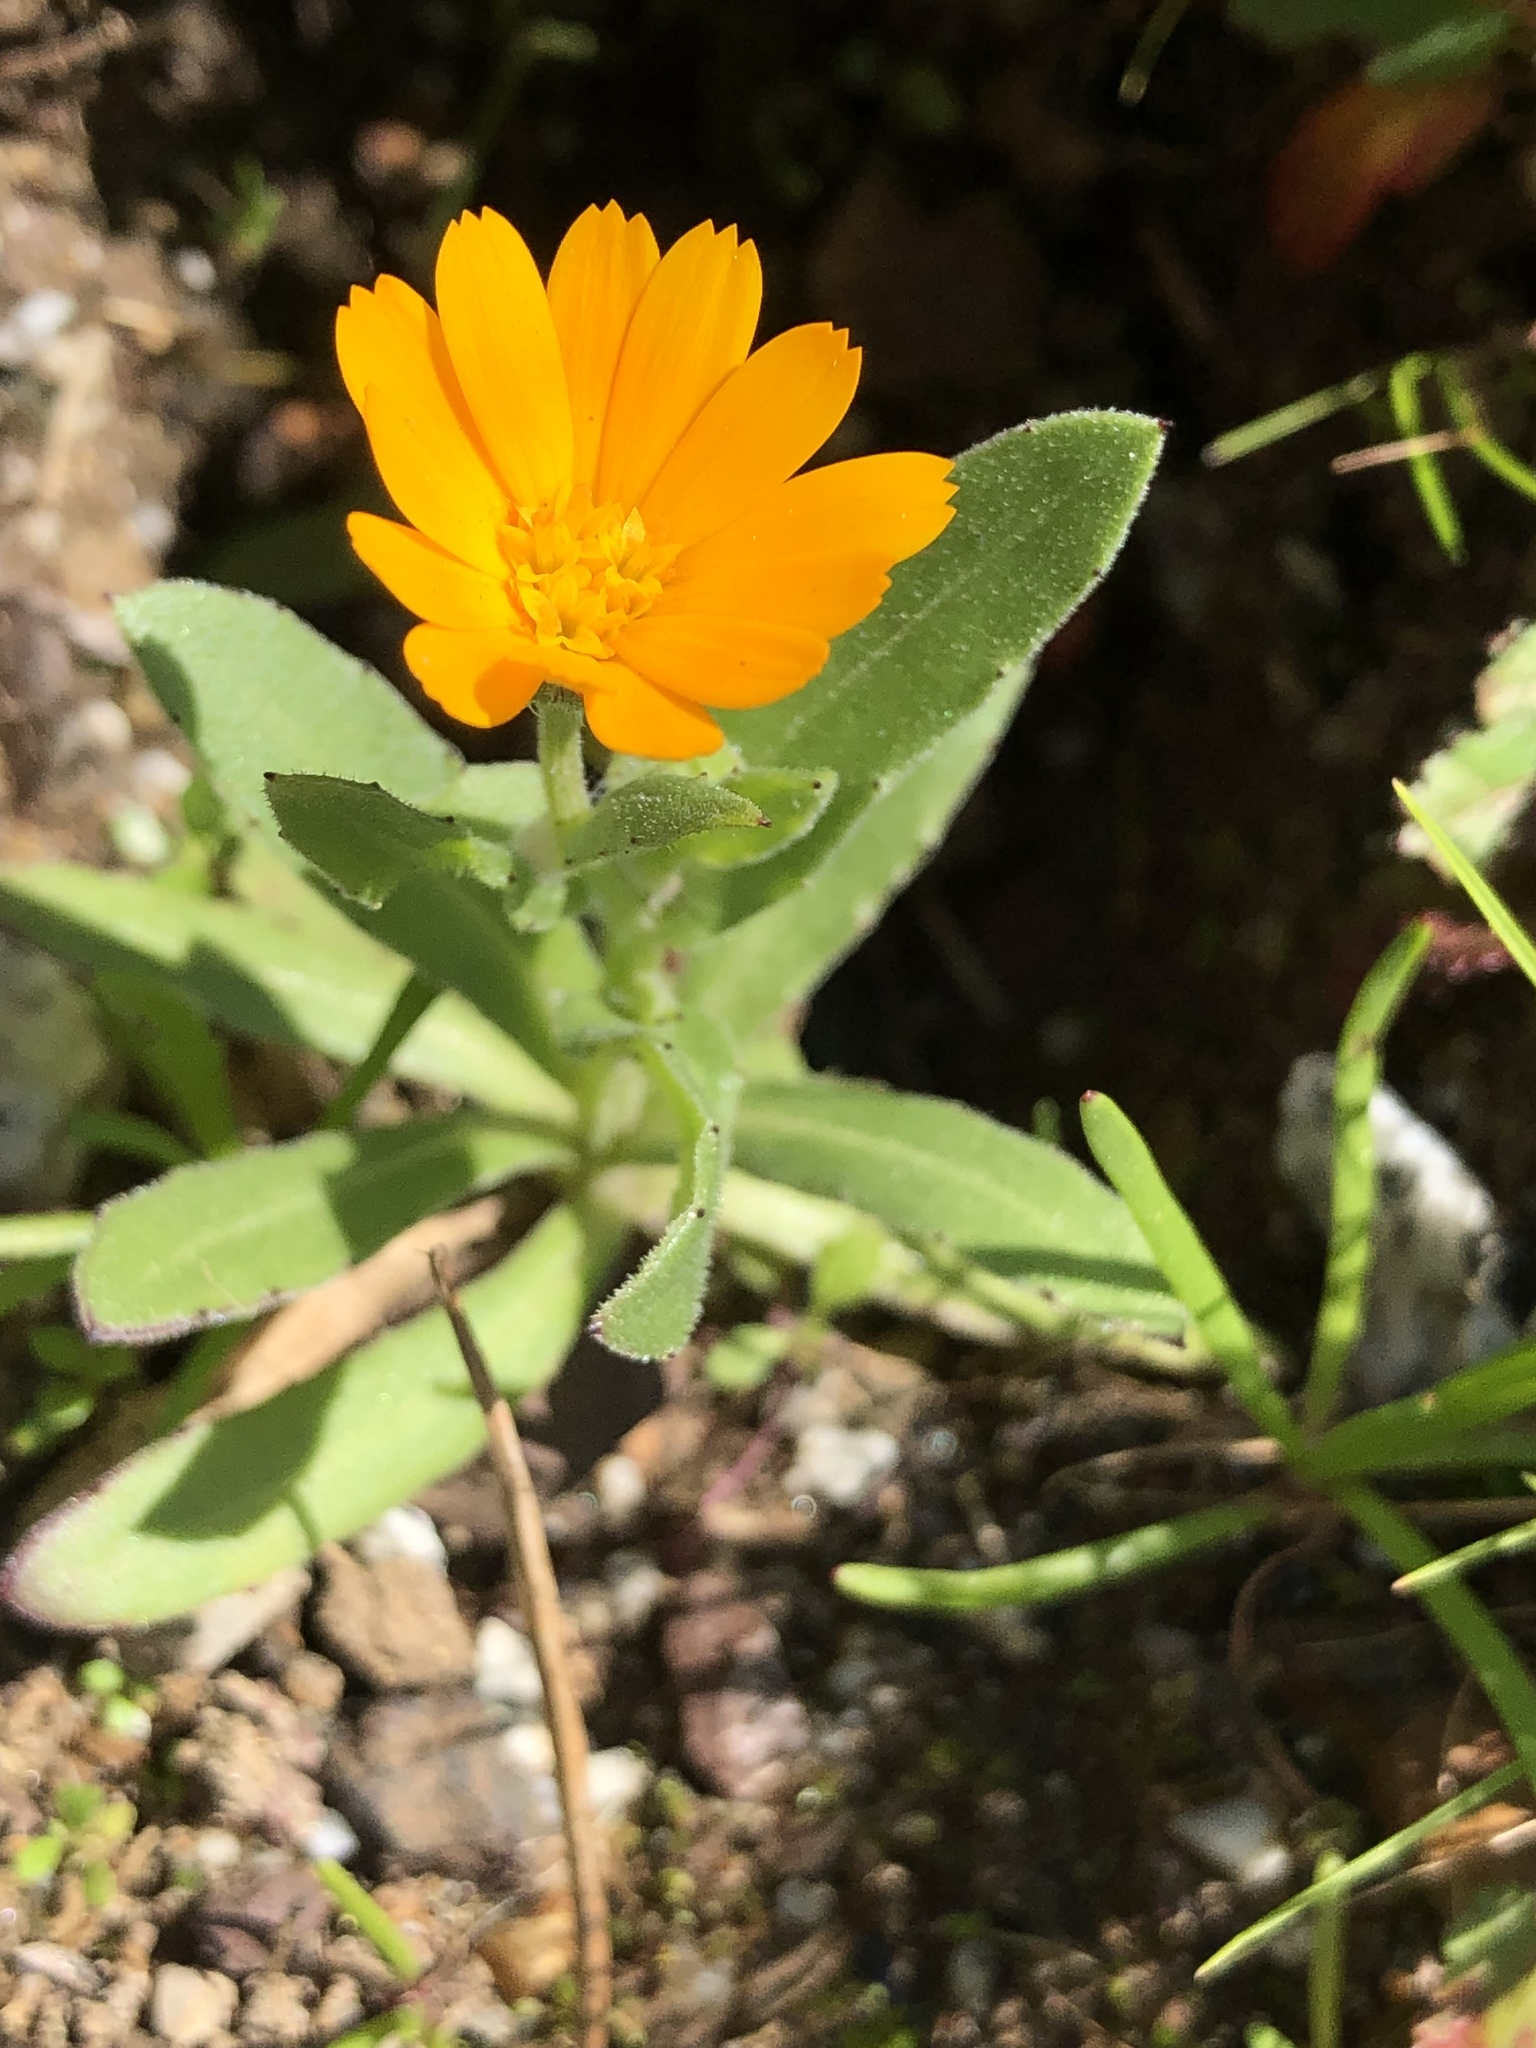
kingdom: Plantae
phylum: Tracheophyta
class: Magnoliopsida
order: Asterales
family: Asteraceae
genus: Calendula
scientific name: Calendula arvensis
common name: Field marigold
